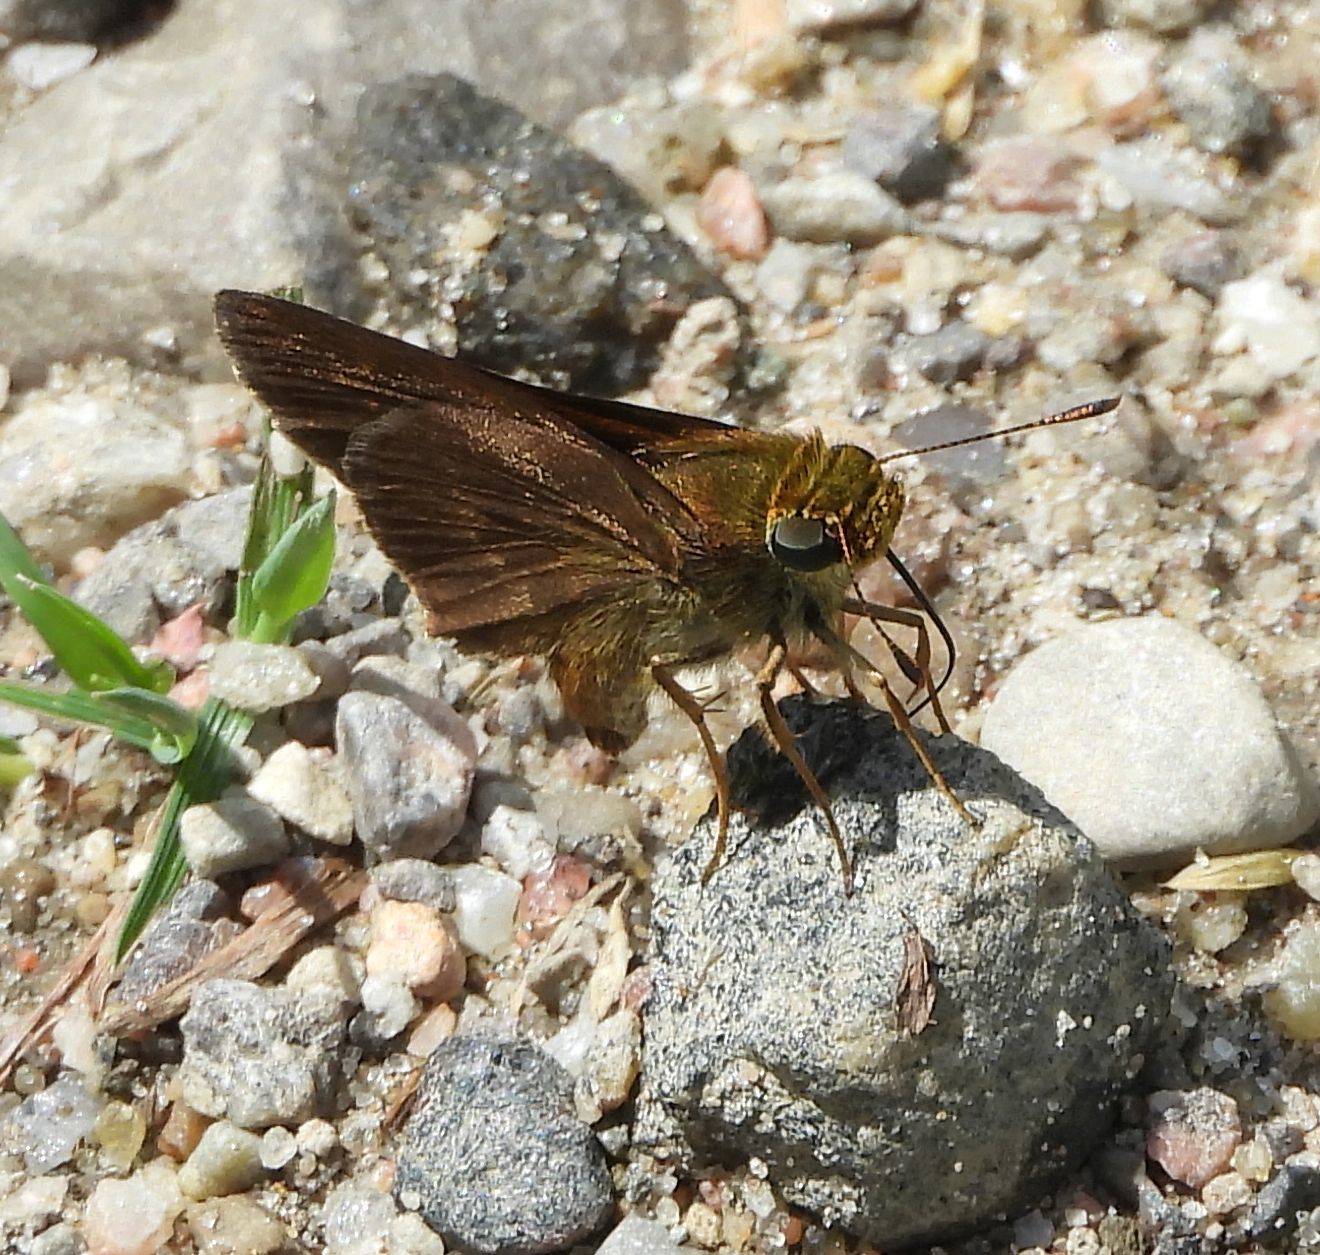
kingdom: Animalia
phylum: Arthropoda
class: Insecta
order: Lepidoptera
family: Hesperiidae
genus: Euphyes
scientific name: Euphyes vestris
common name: Dun skipper
